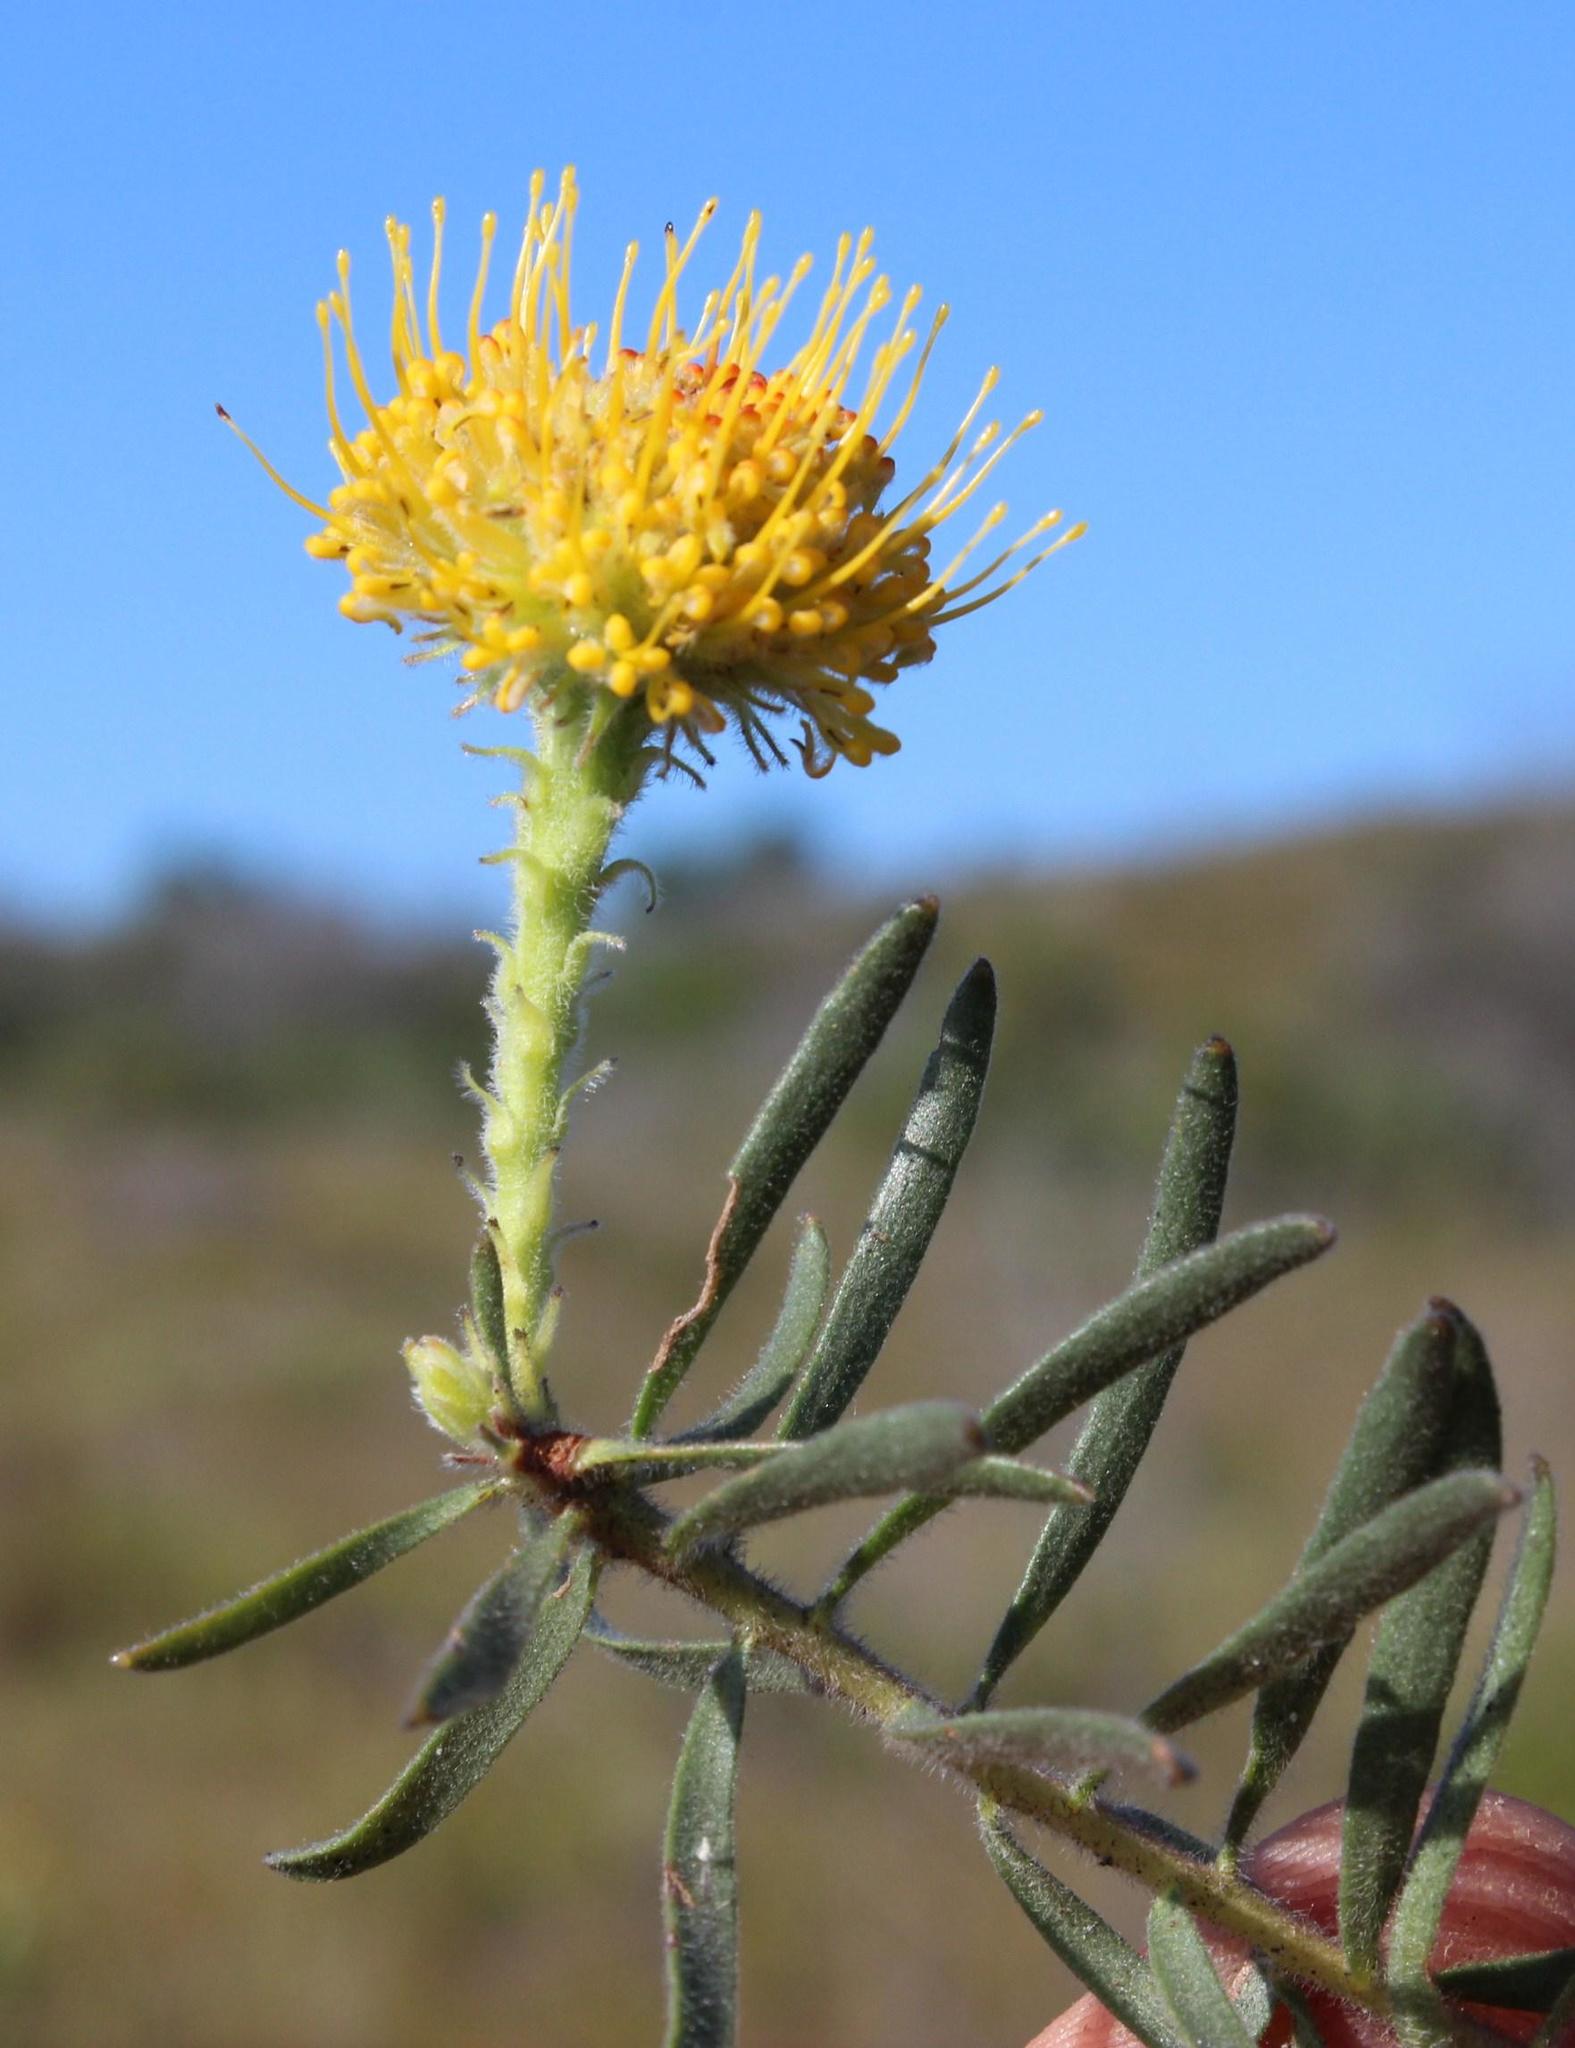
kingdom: Plantae
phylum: Tracheophyta
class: Magnoliopsida
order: Proteales
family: Proteaceae
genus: Leucospermum
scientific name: Leucospermum prostratum
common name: Yellow-trailing pincushion
